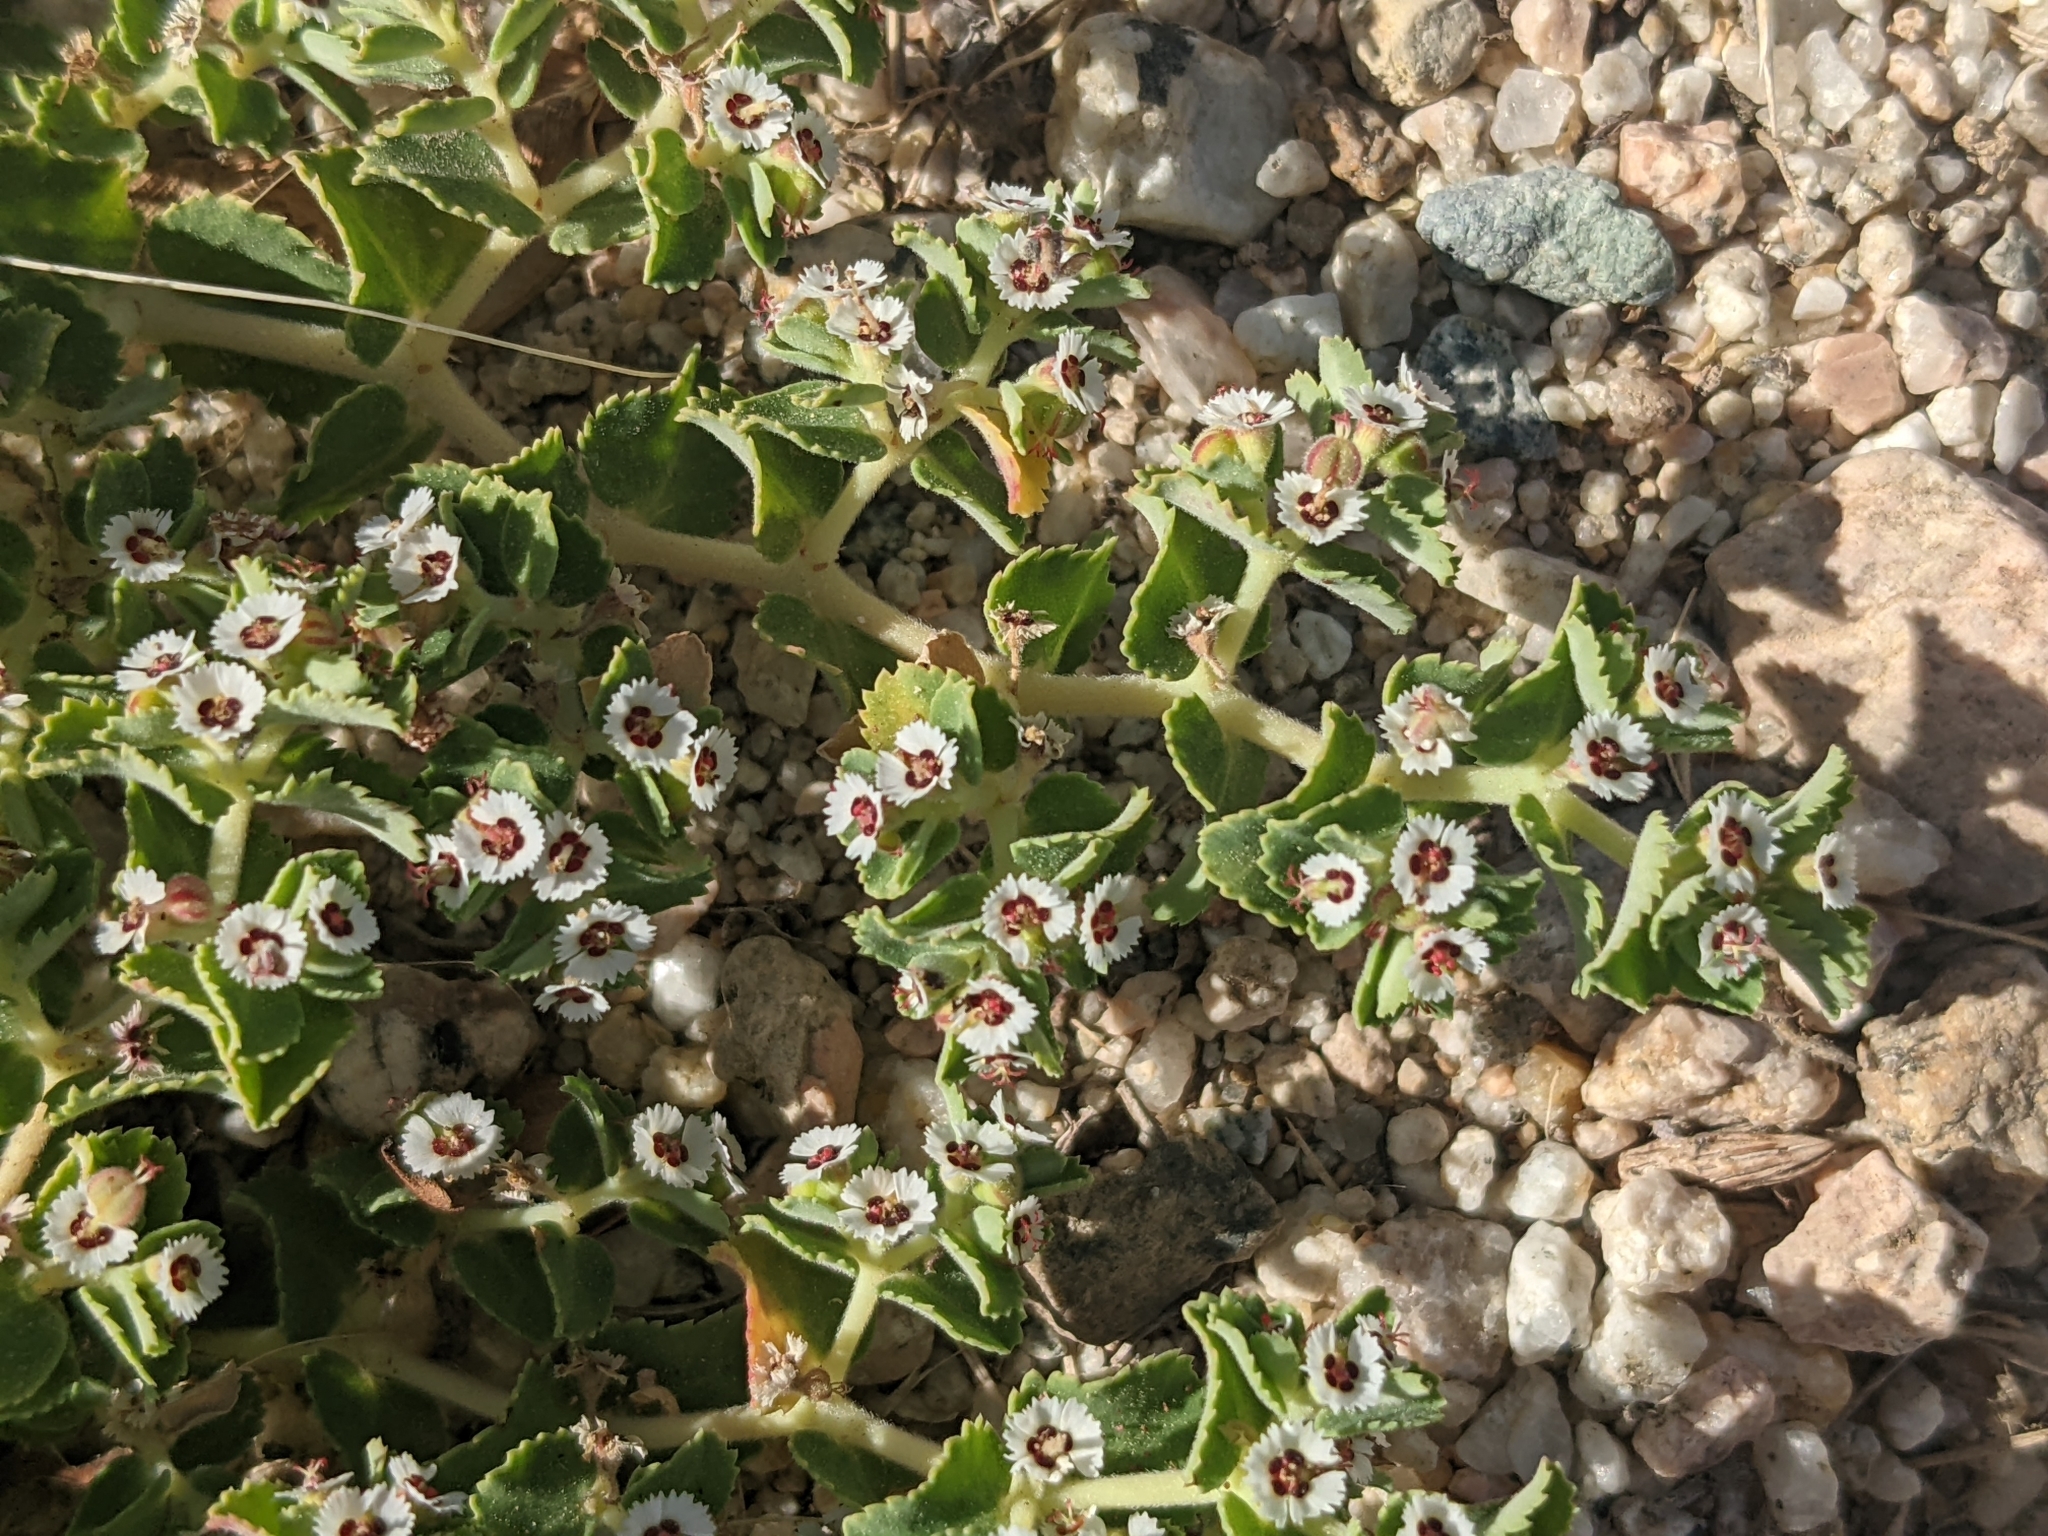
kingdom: Plantae
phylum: Tracheophyta
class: Magnoliopsida
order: Malpighiales
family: Euphorbiaceae
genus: Euphorbia
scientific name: Euphorbia leucophylla
